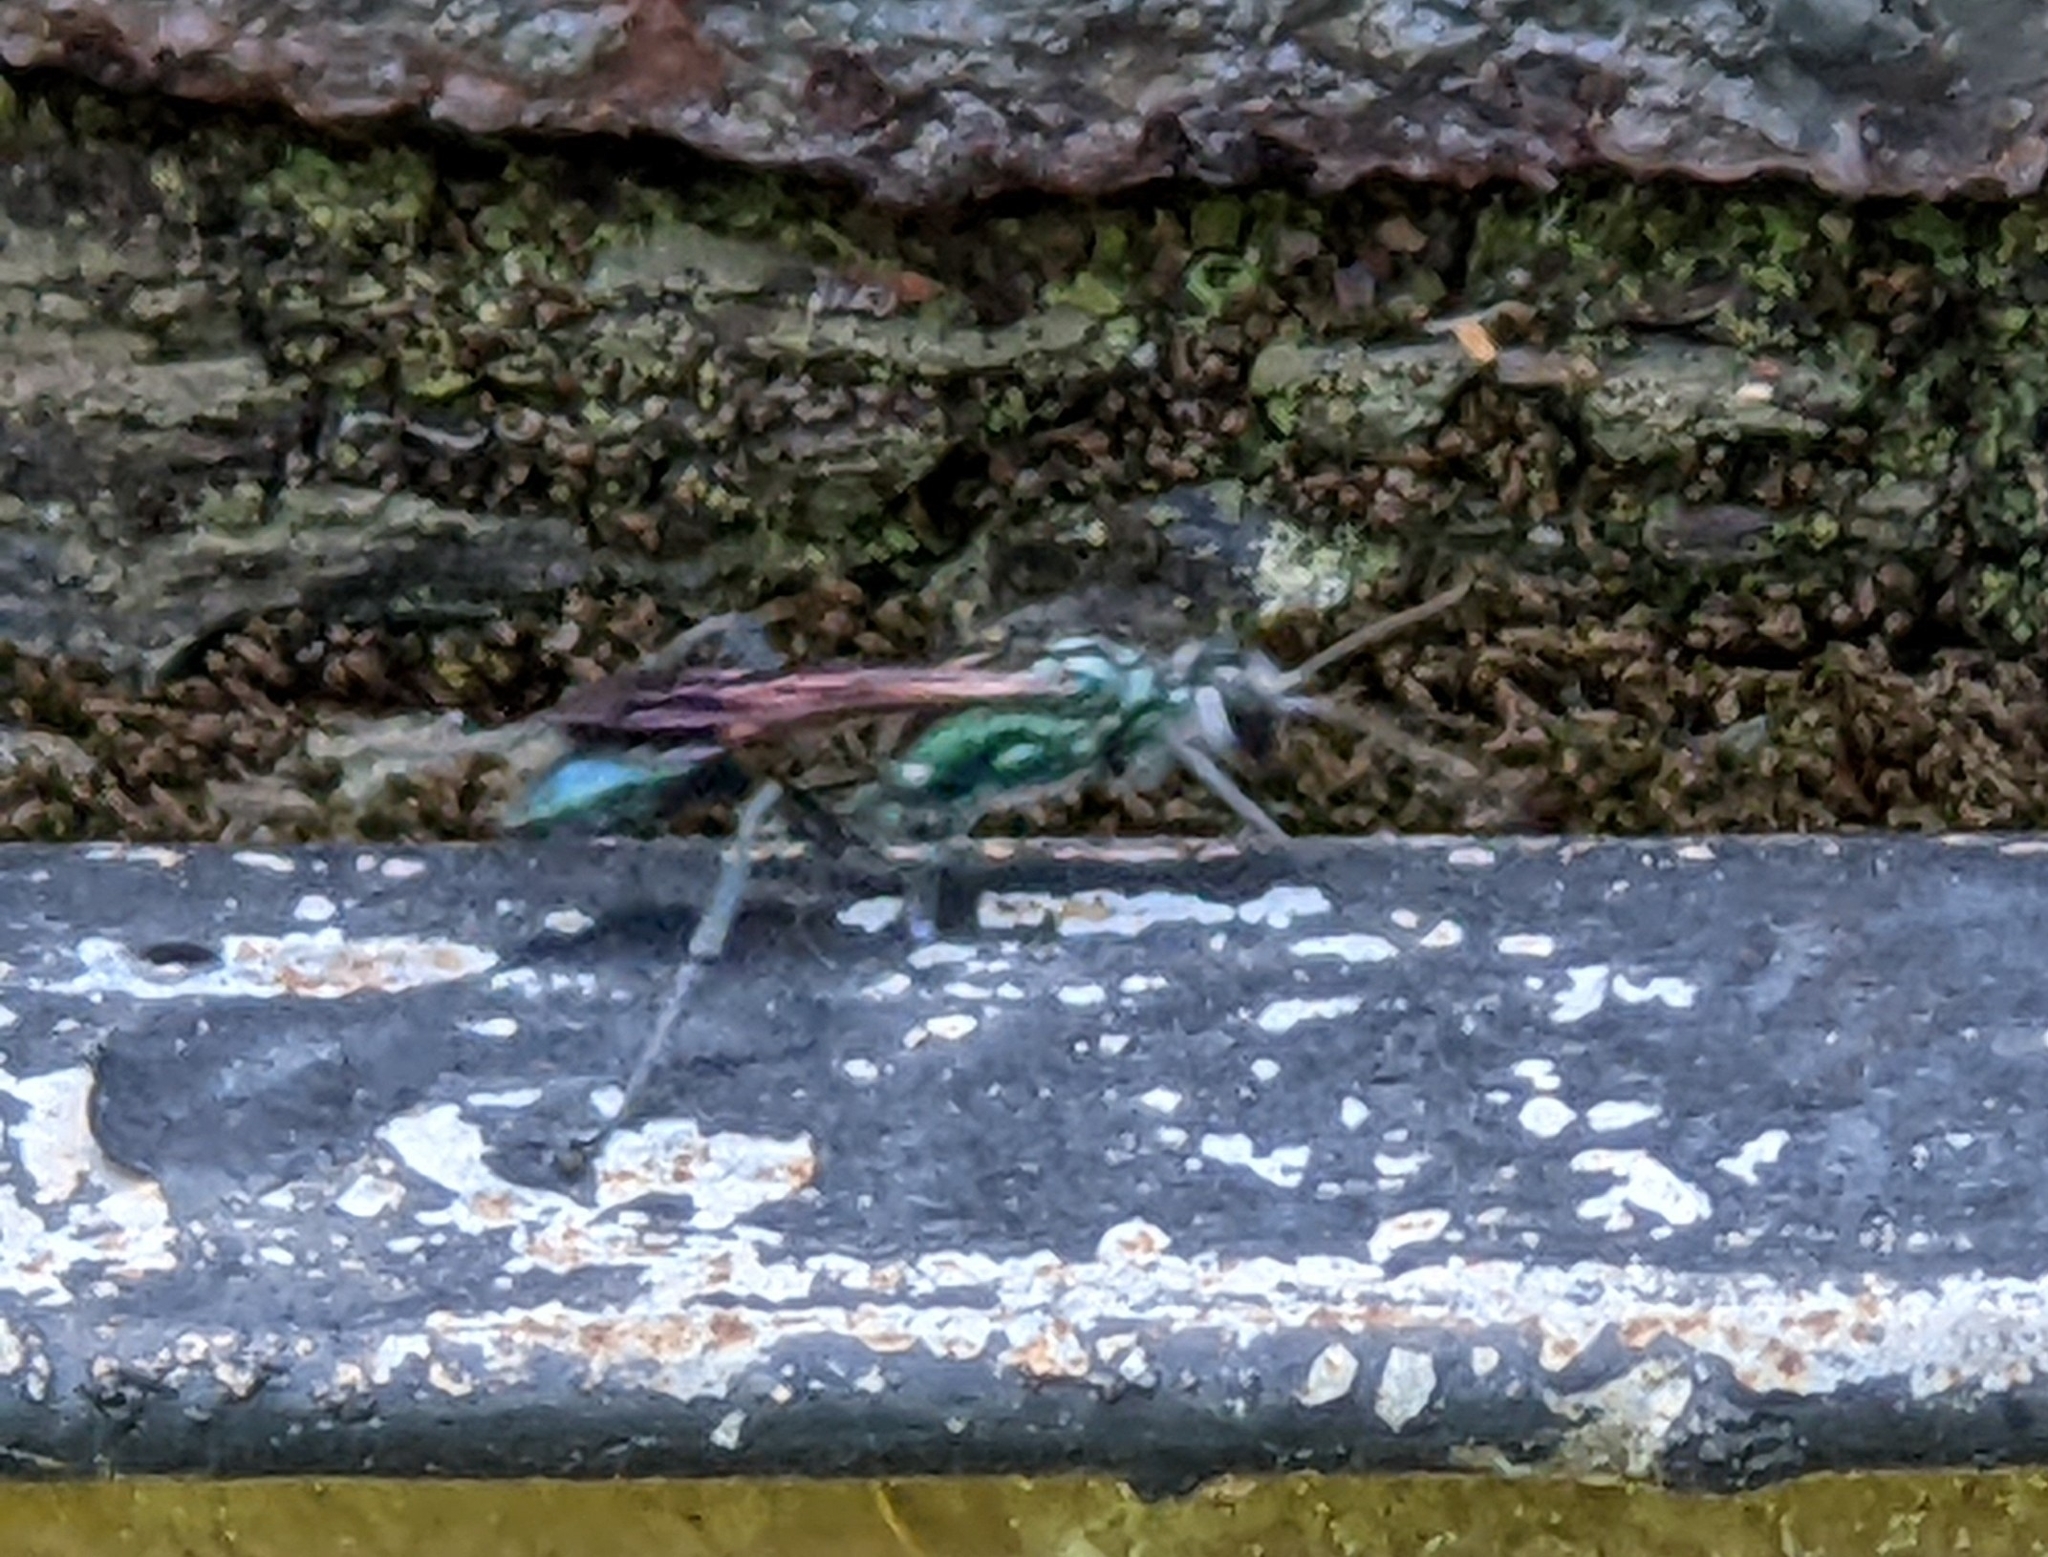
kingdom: Animalia
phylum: Arthropoda
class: Insecta
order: Hymenoptera
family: Sphecidae
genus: Chalybion
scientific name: Chalybion zimmermanni
